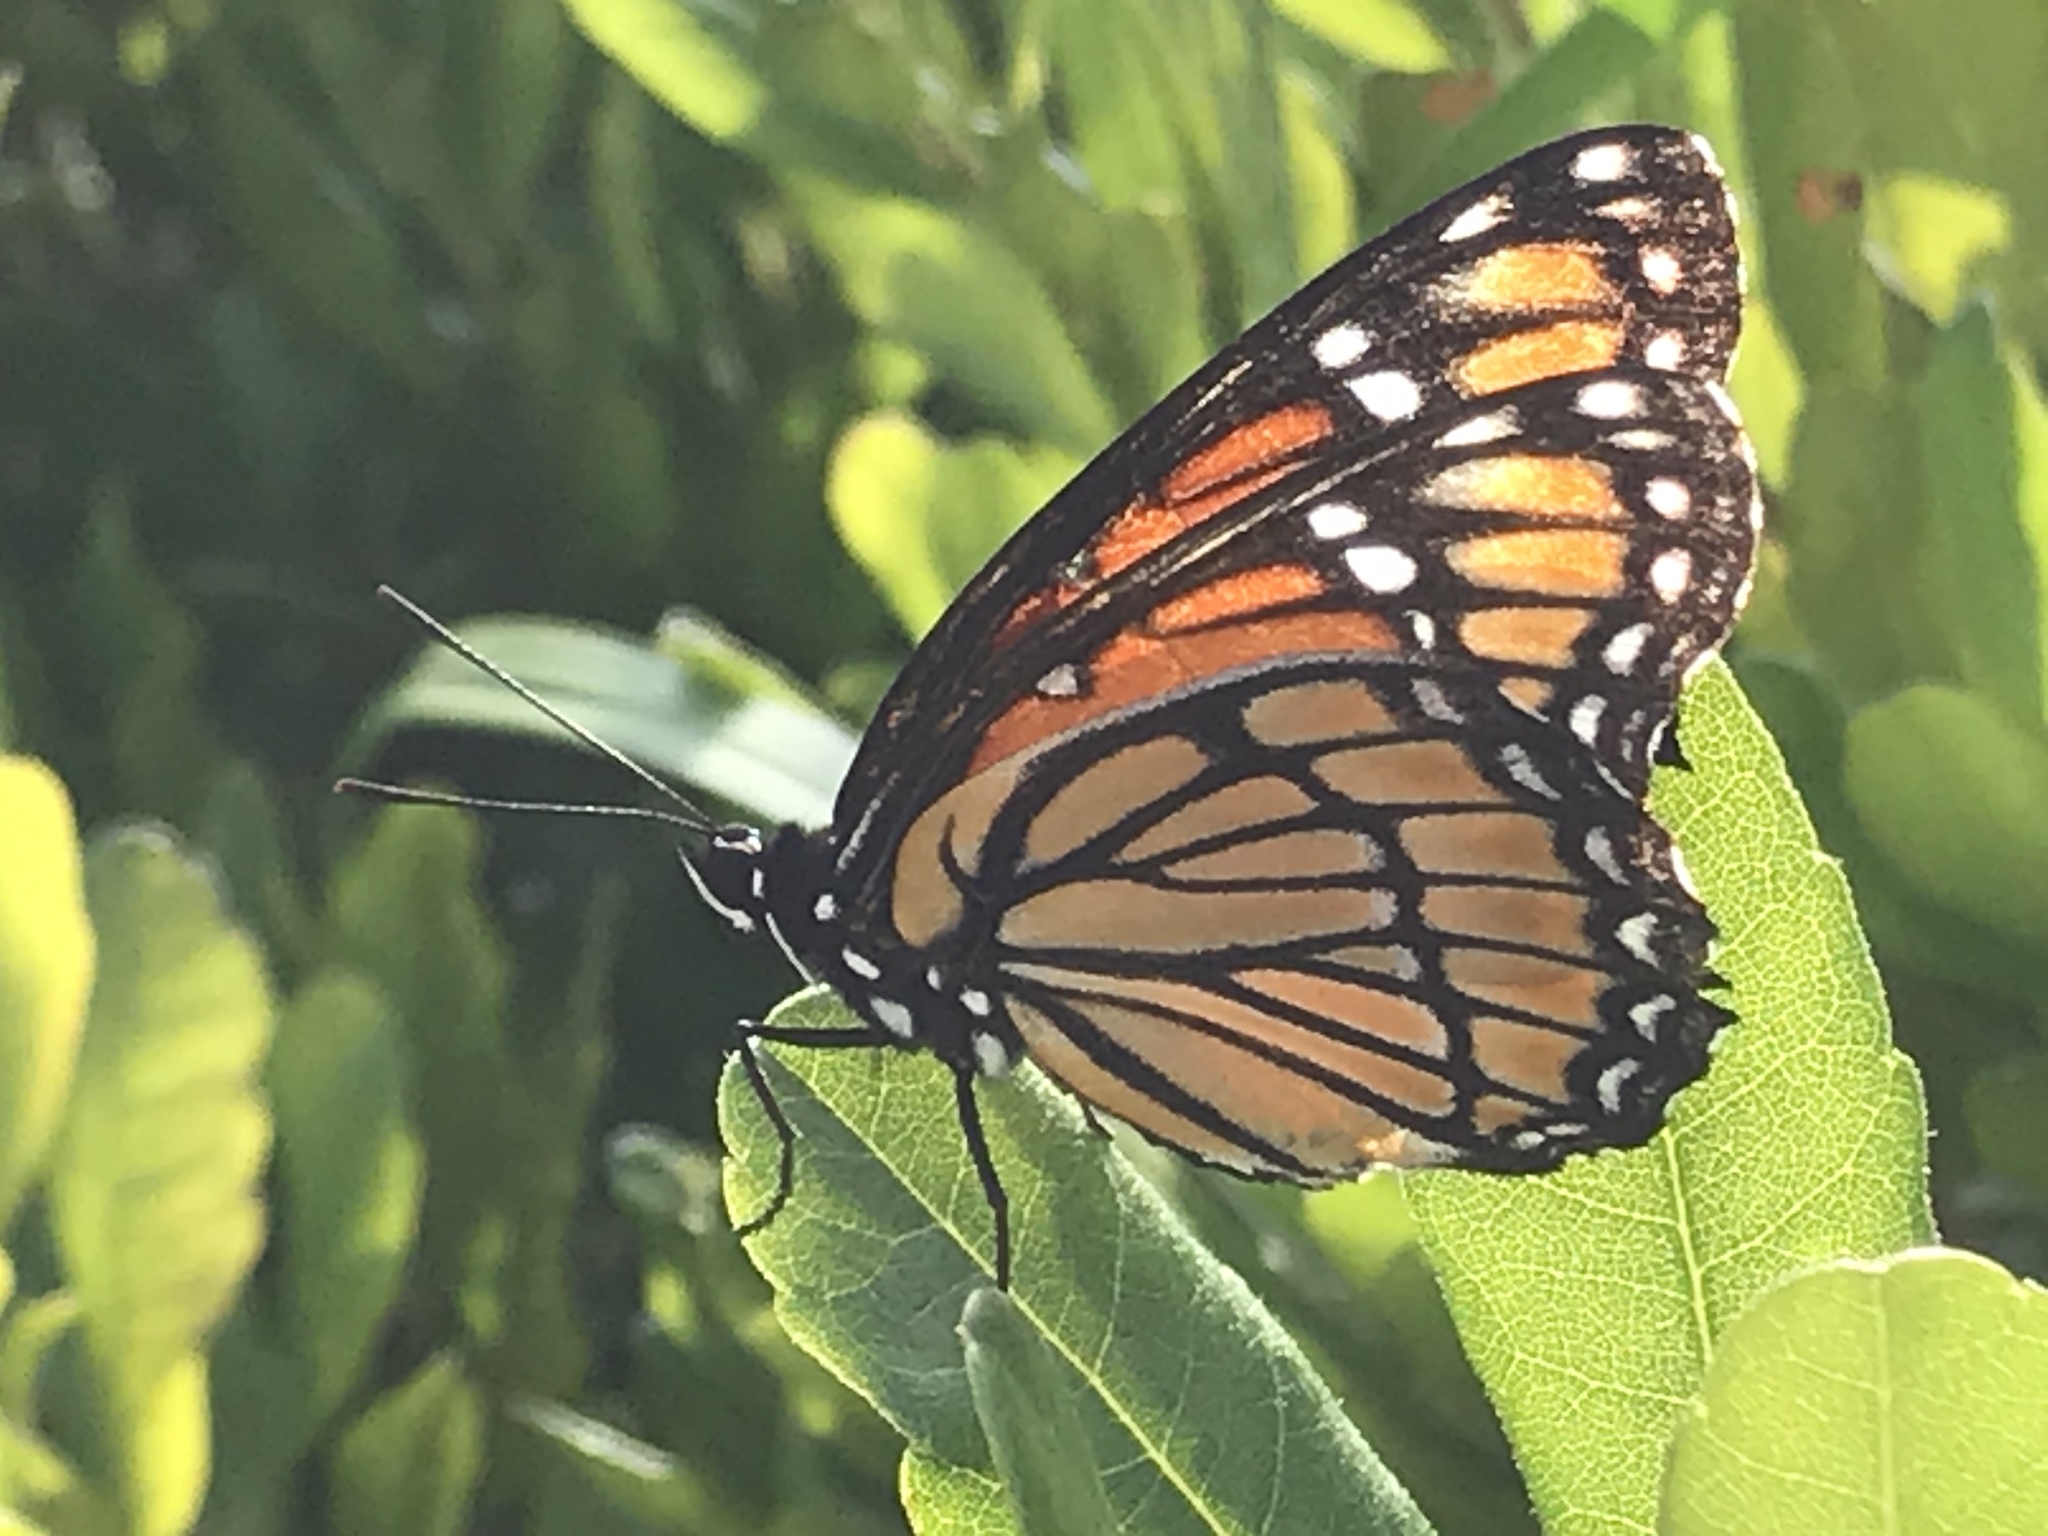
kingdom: Animalia
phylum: Arthropoda
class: Insecta
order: Lepidoptera
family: Nymphalidae
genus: Limenitis
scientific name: Limenitis archippus
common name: Viceroy
